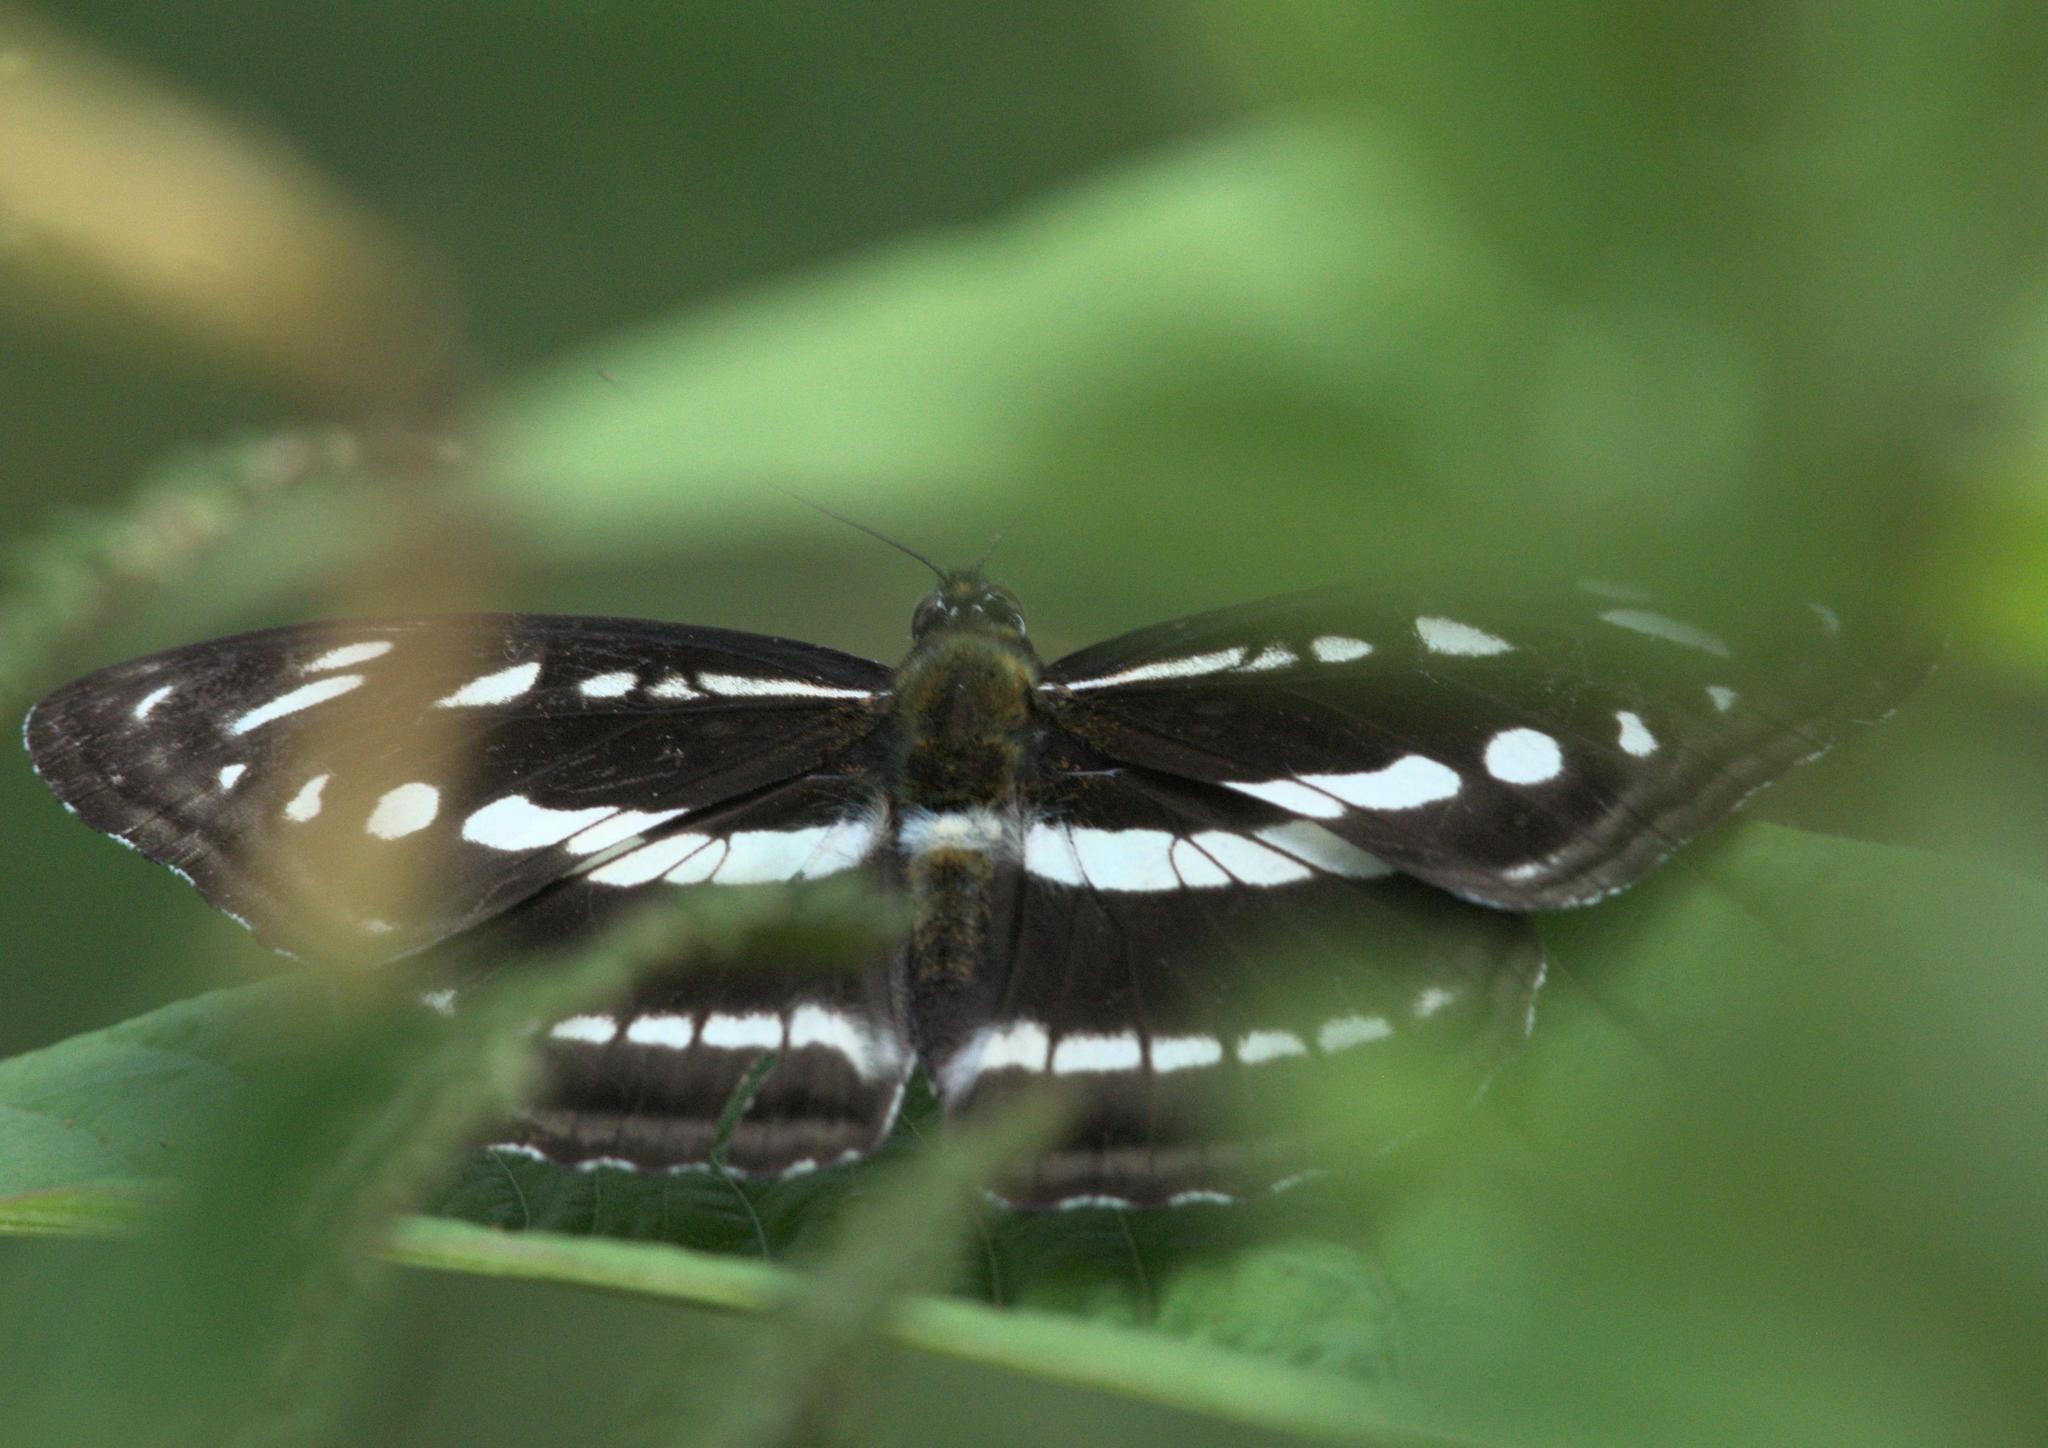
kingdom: Animalia
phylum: Arthropoda
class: Insecta
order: Lepidoptera
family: Nymphalidae
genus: Parathyma
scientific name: Parathyma opalina
